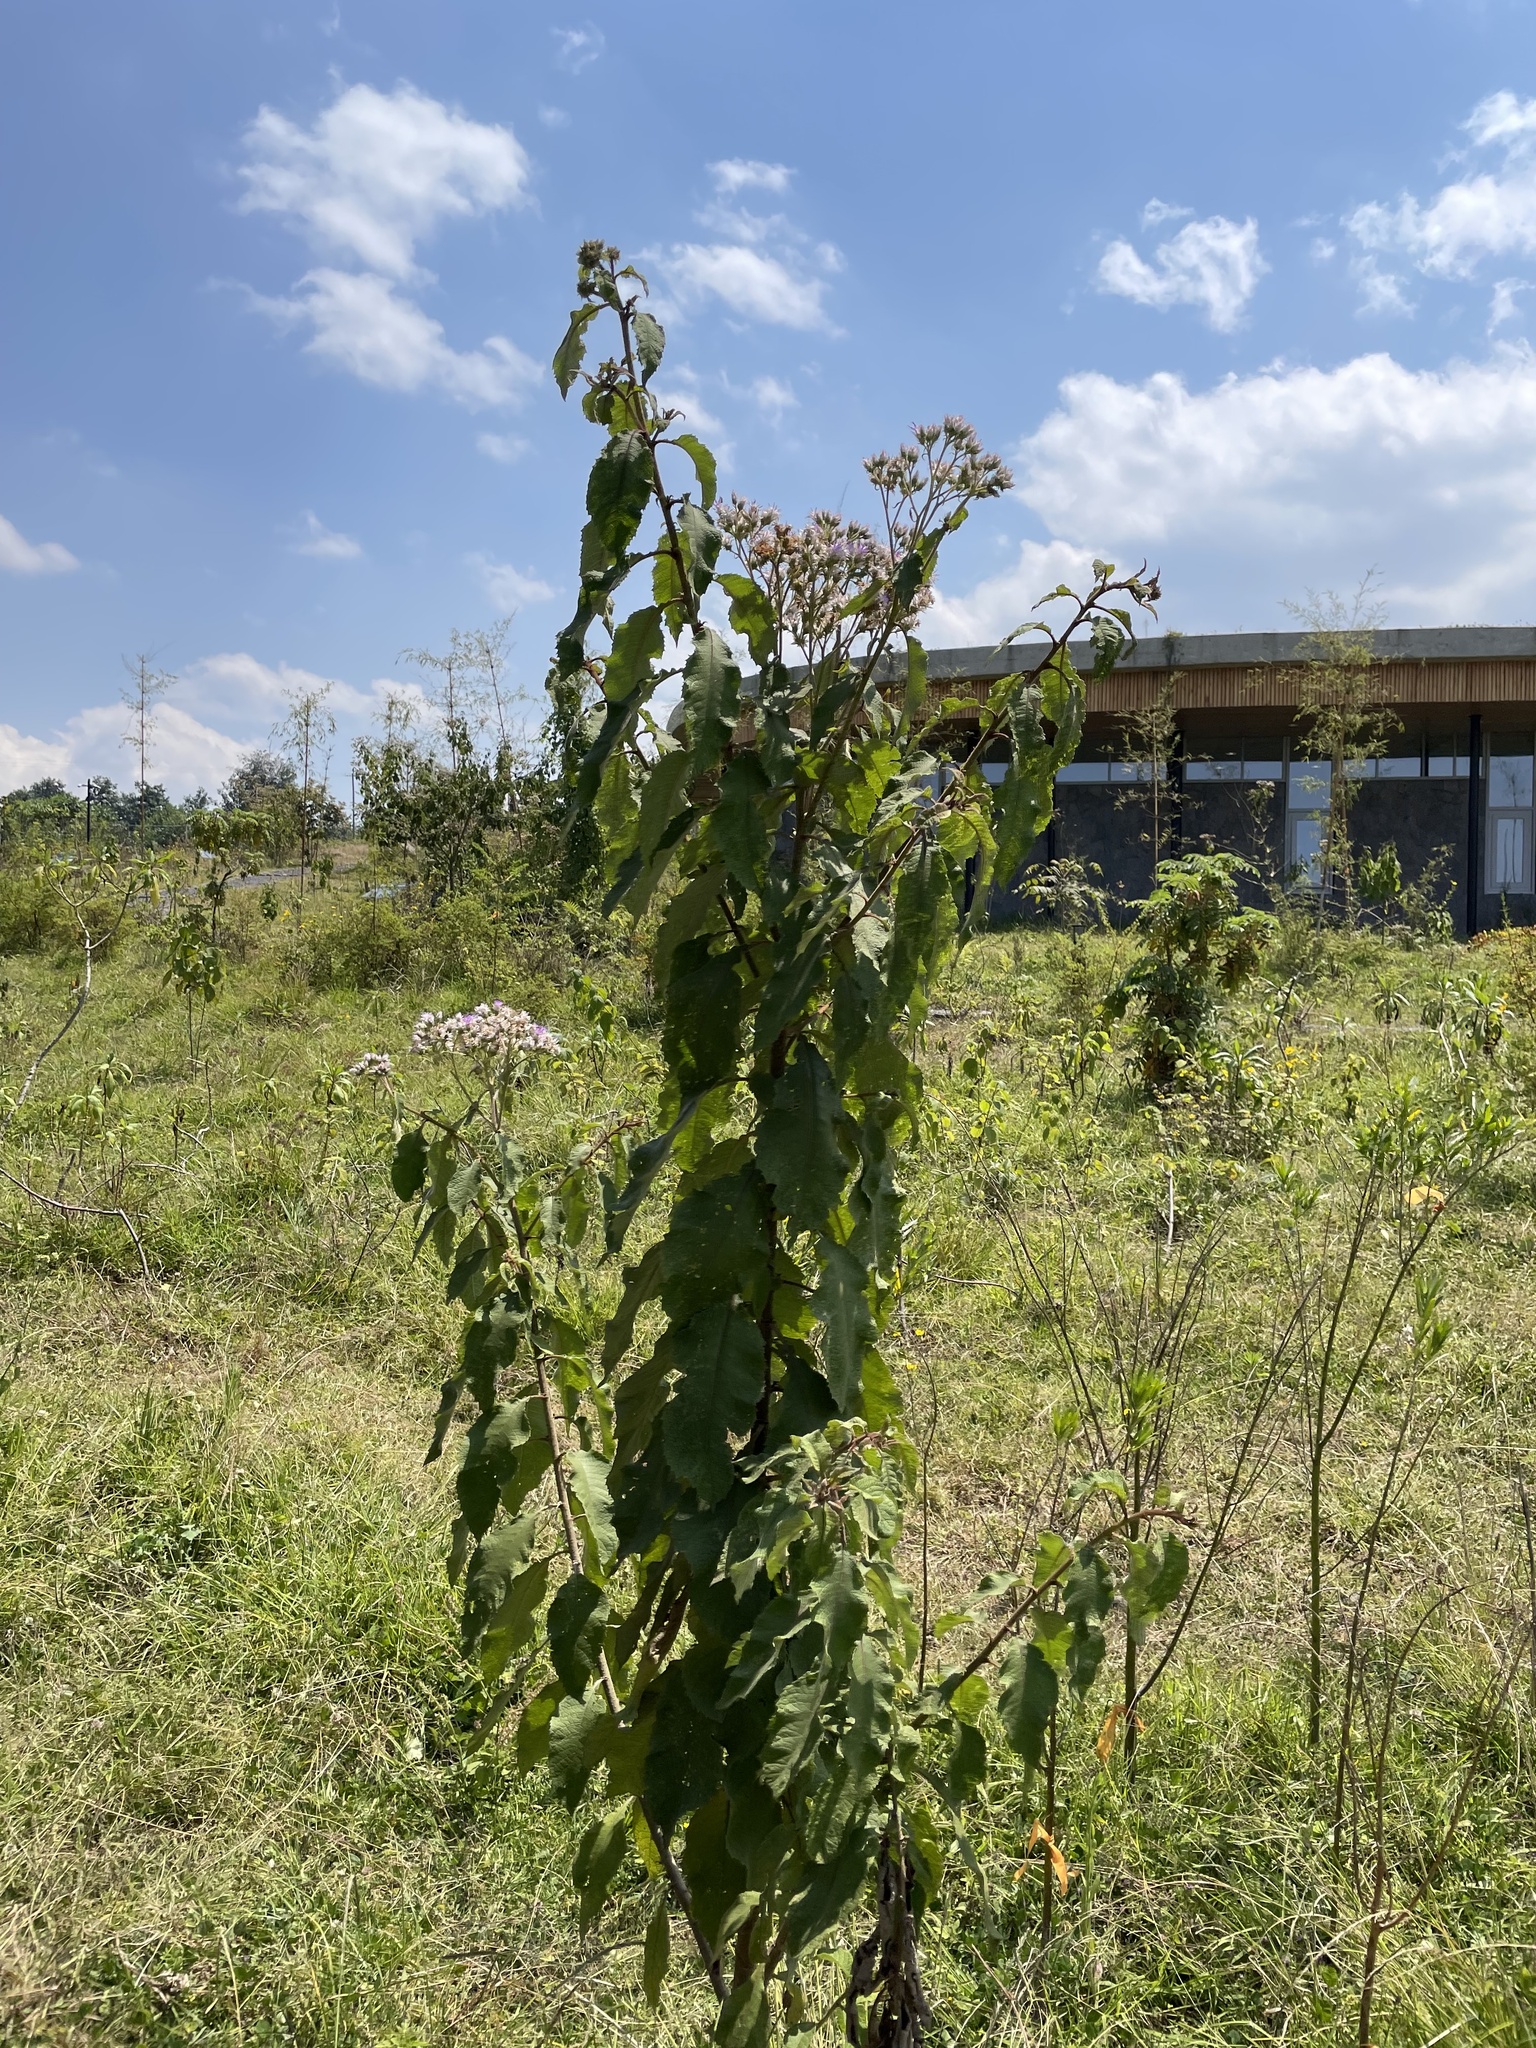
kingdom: Plantae
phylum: Tracheophyta
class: Magnoliopsida
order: Asterales
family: Asteraceae
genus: Baccharoides
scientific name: Baccharoides kirungae
